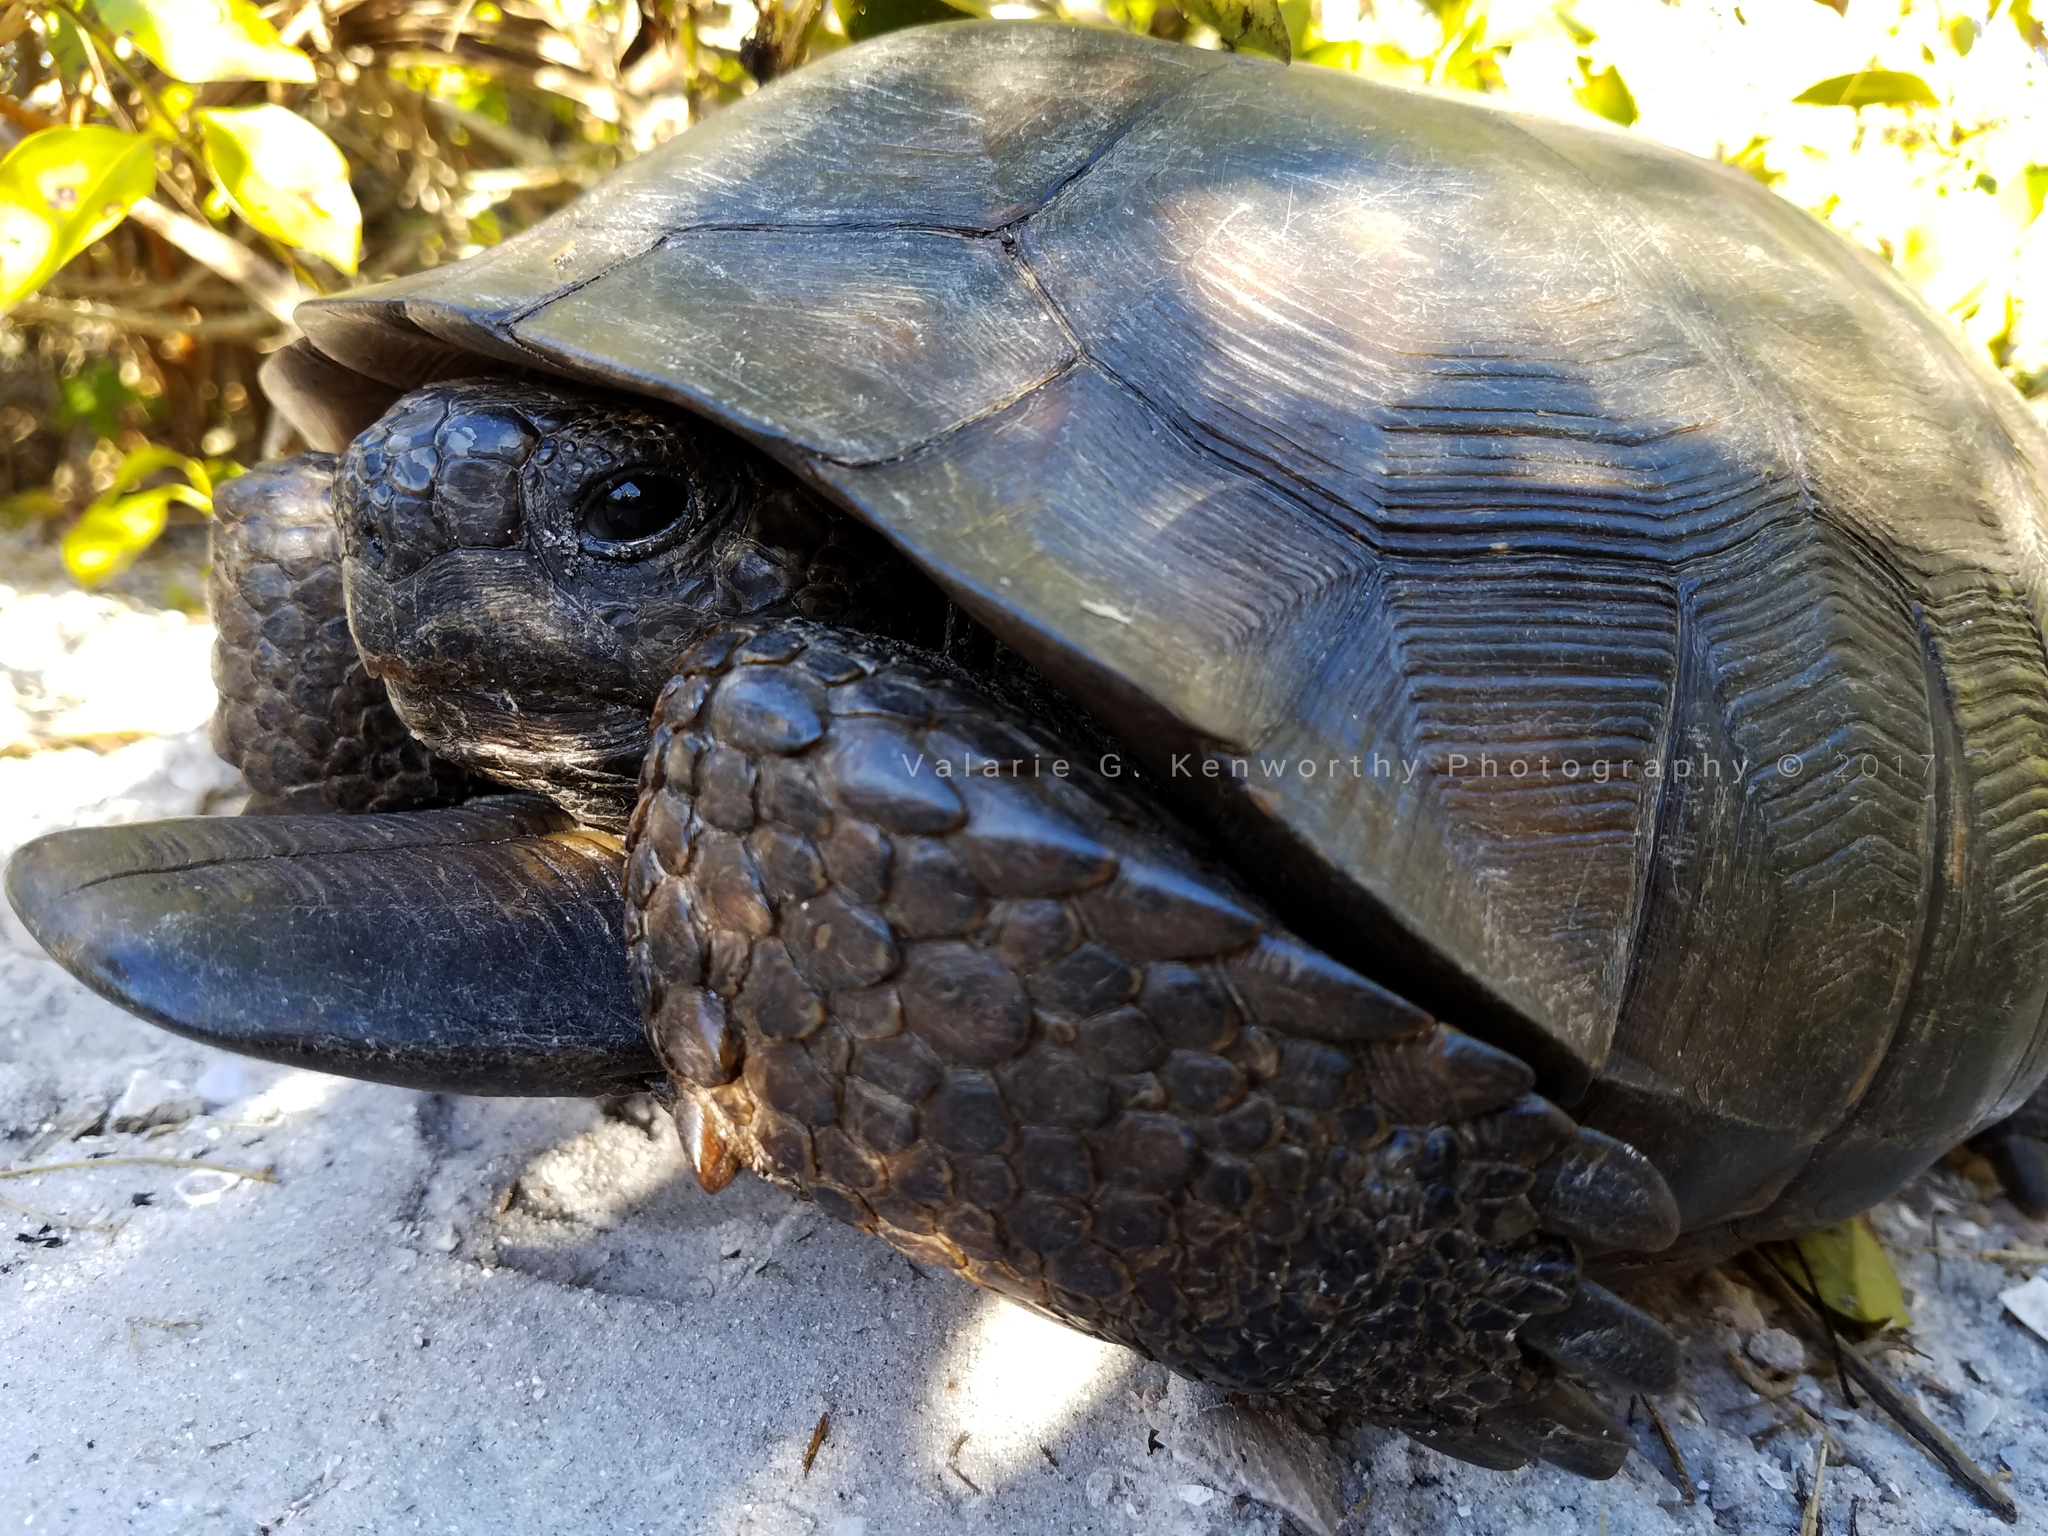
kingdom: Animalia
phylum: Chordata
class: Testudines
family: Testudinidae
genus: Gopherus
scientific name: Gopherus polyphemus
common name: Florida gopher tortoise
